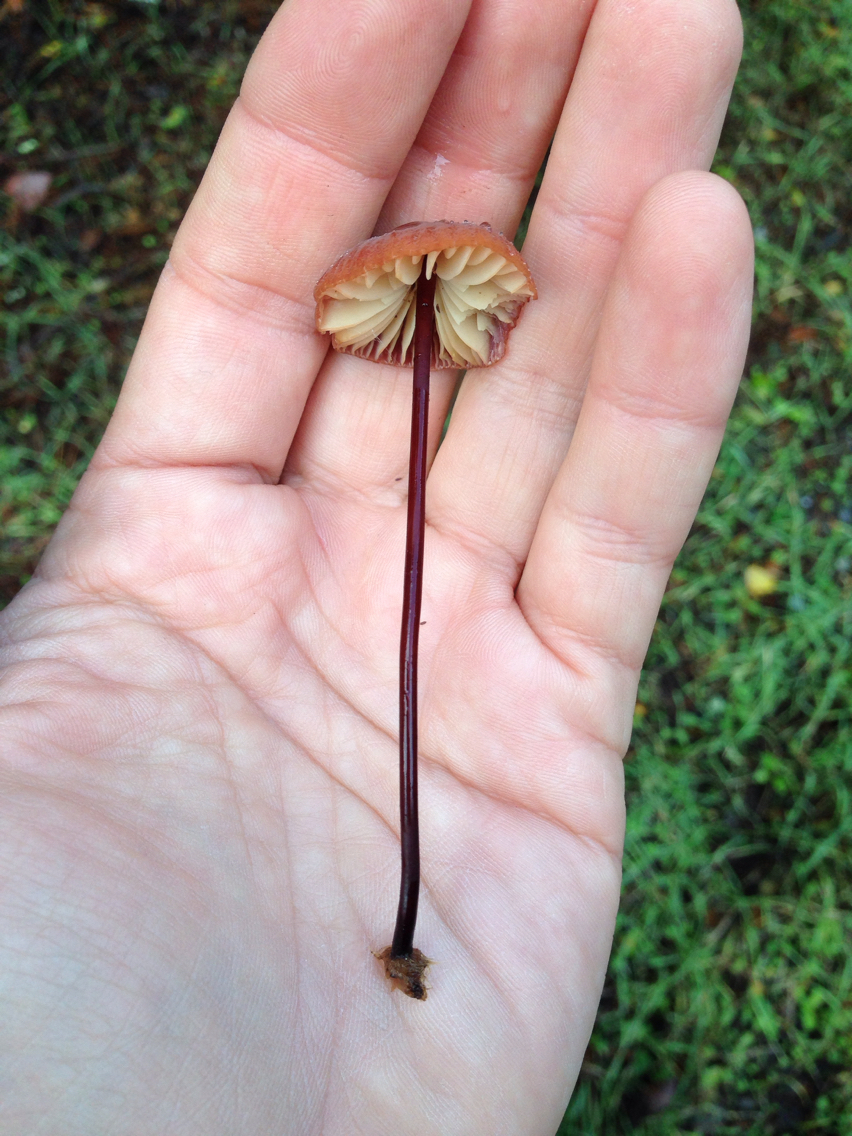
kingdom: Fungi
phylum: Basidiomycota
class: Agaricomycetes
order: Agaricales
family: Marasmiaceae
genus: Marasmius
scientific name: Marasmius plicatulus
